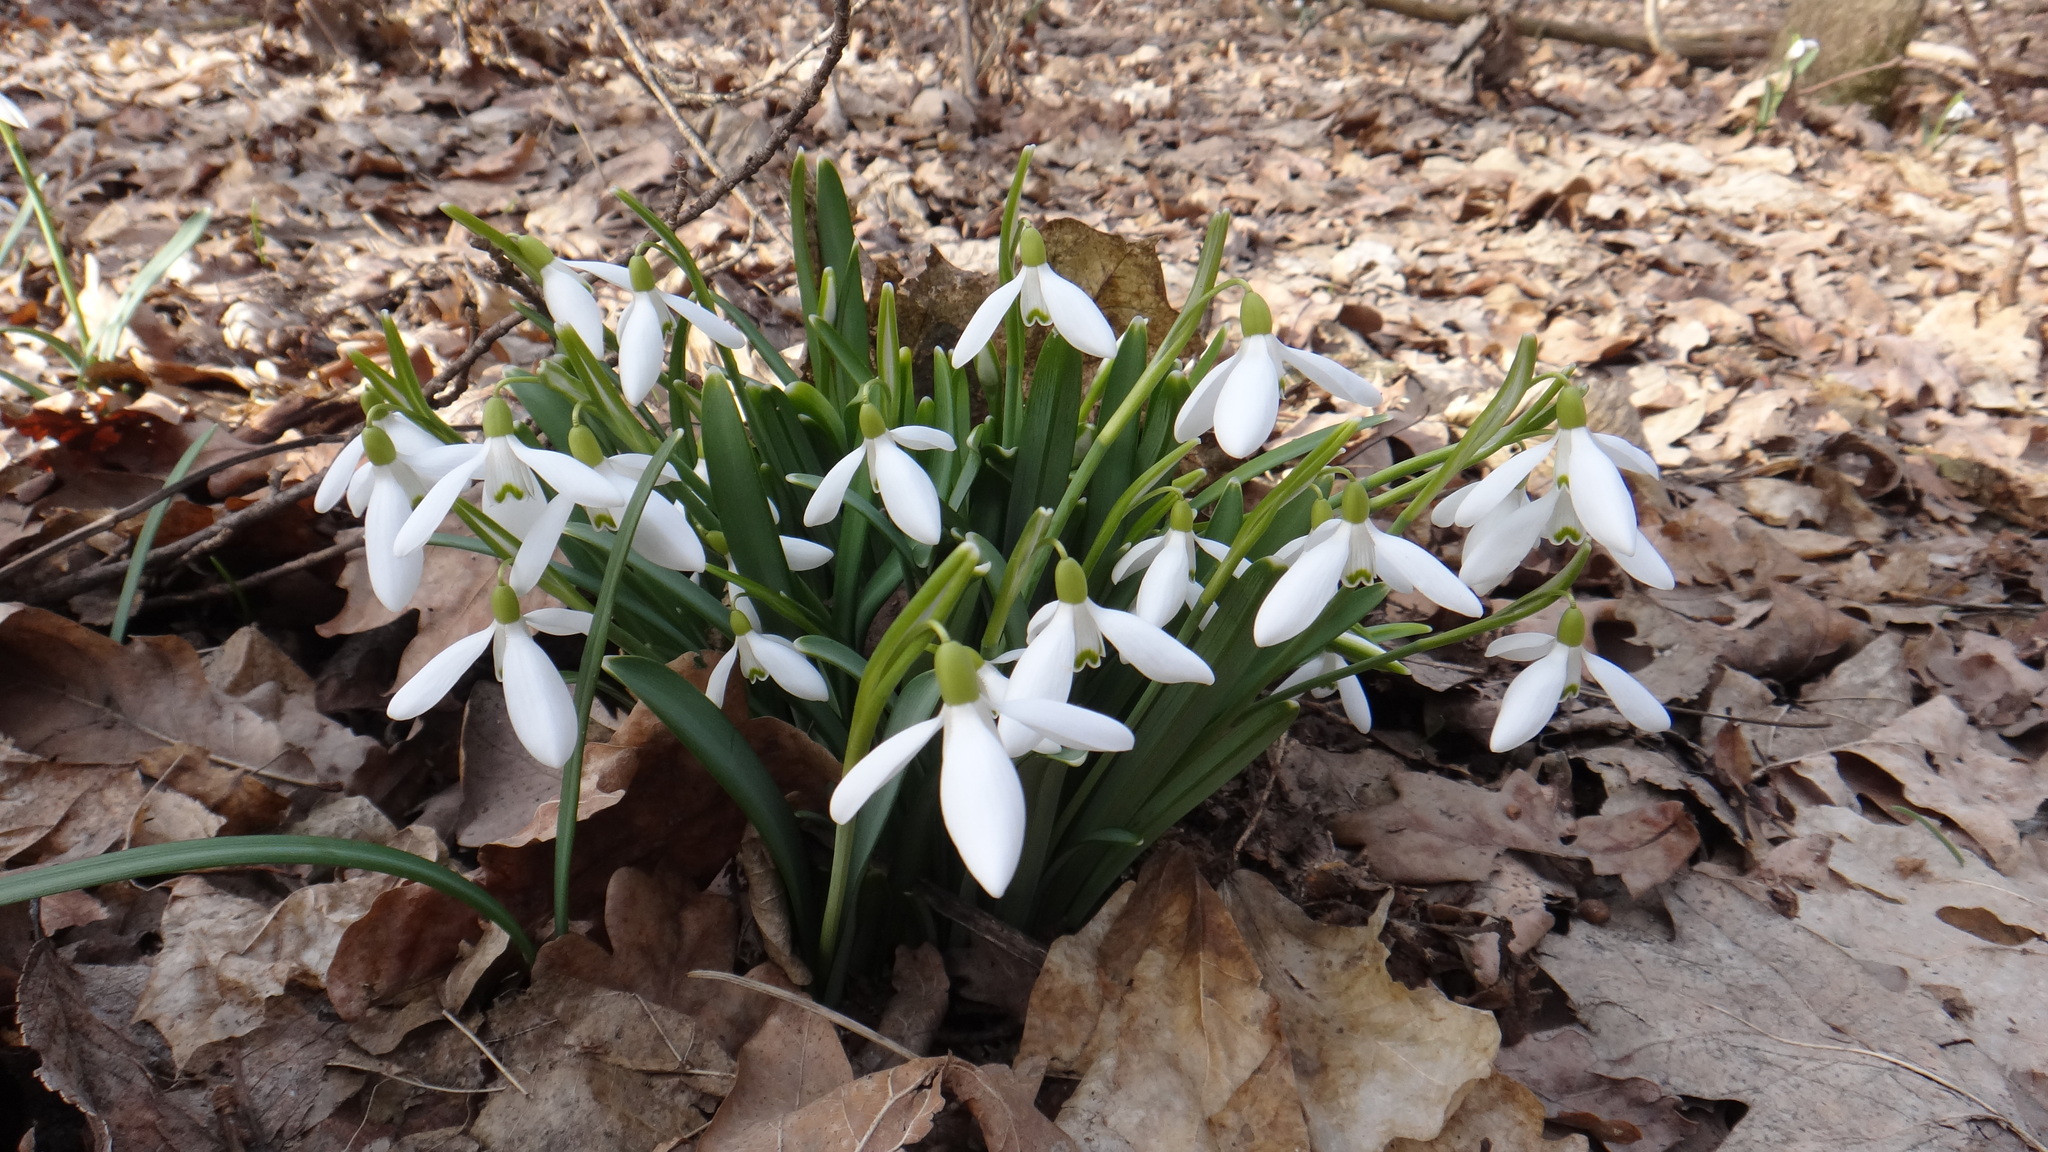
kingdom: Plantae
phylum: Tracheophyta
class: Liliopsida
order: Asparagales
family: Amaryllidaceae
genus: Galanthus
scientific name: Galanthus nivalis
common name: Snowdrop
